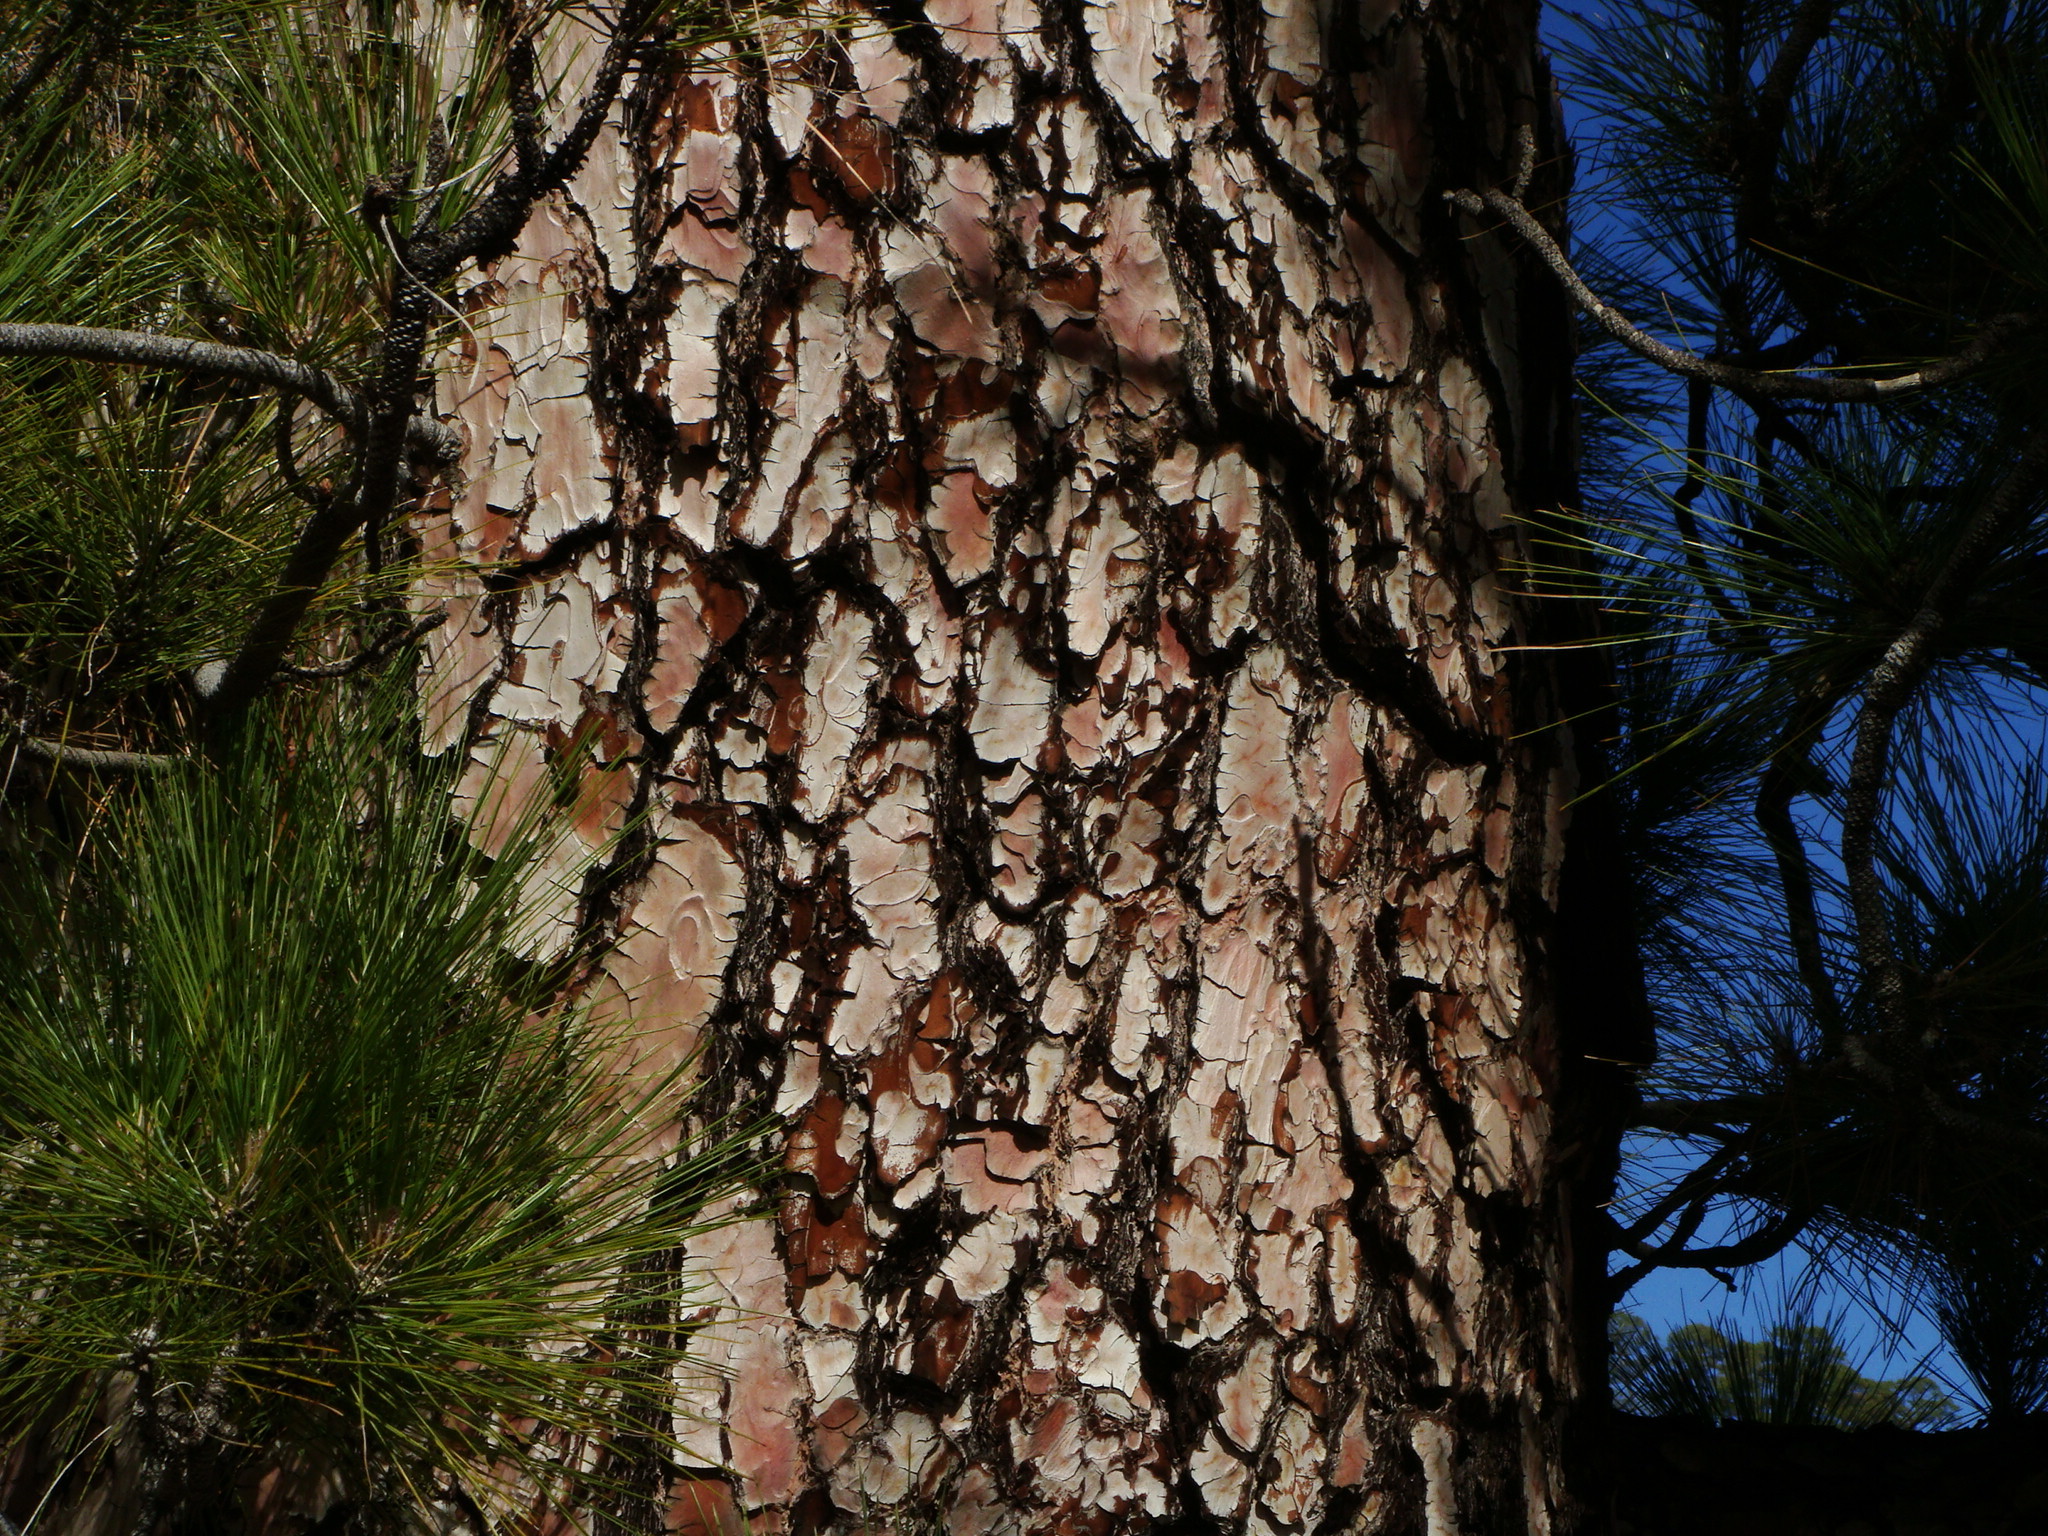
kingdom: Plantae
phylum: Tracheophyta
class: Pinopsida
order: Pinales
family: Pinaceae
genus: Pinus
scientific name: Pinus canariensis
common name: Canary islands pine
